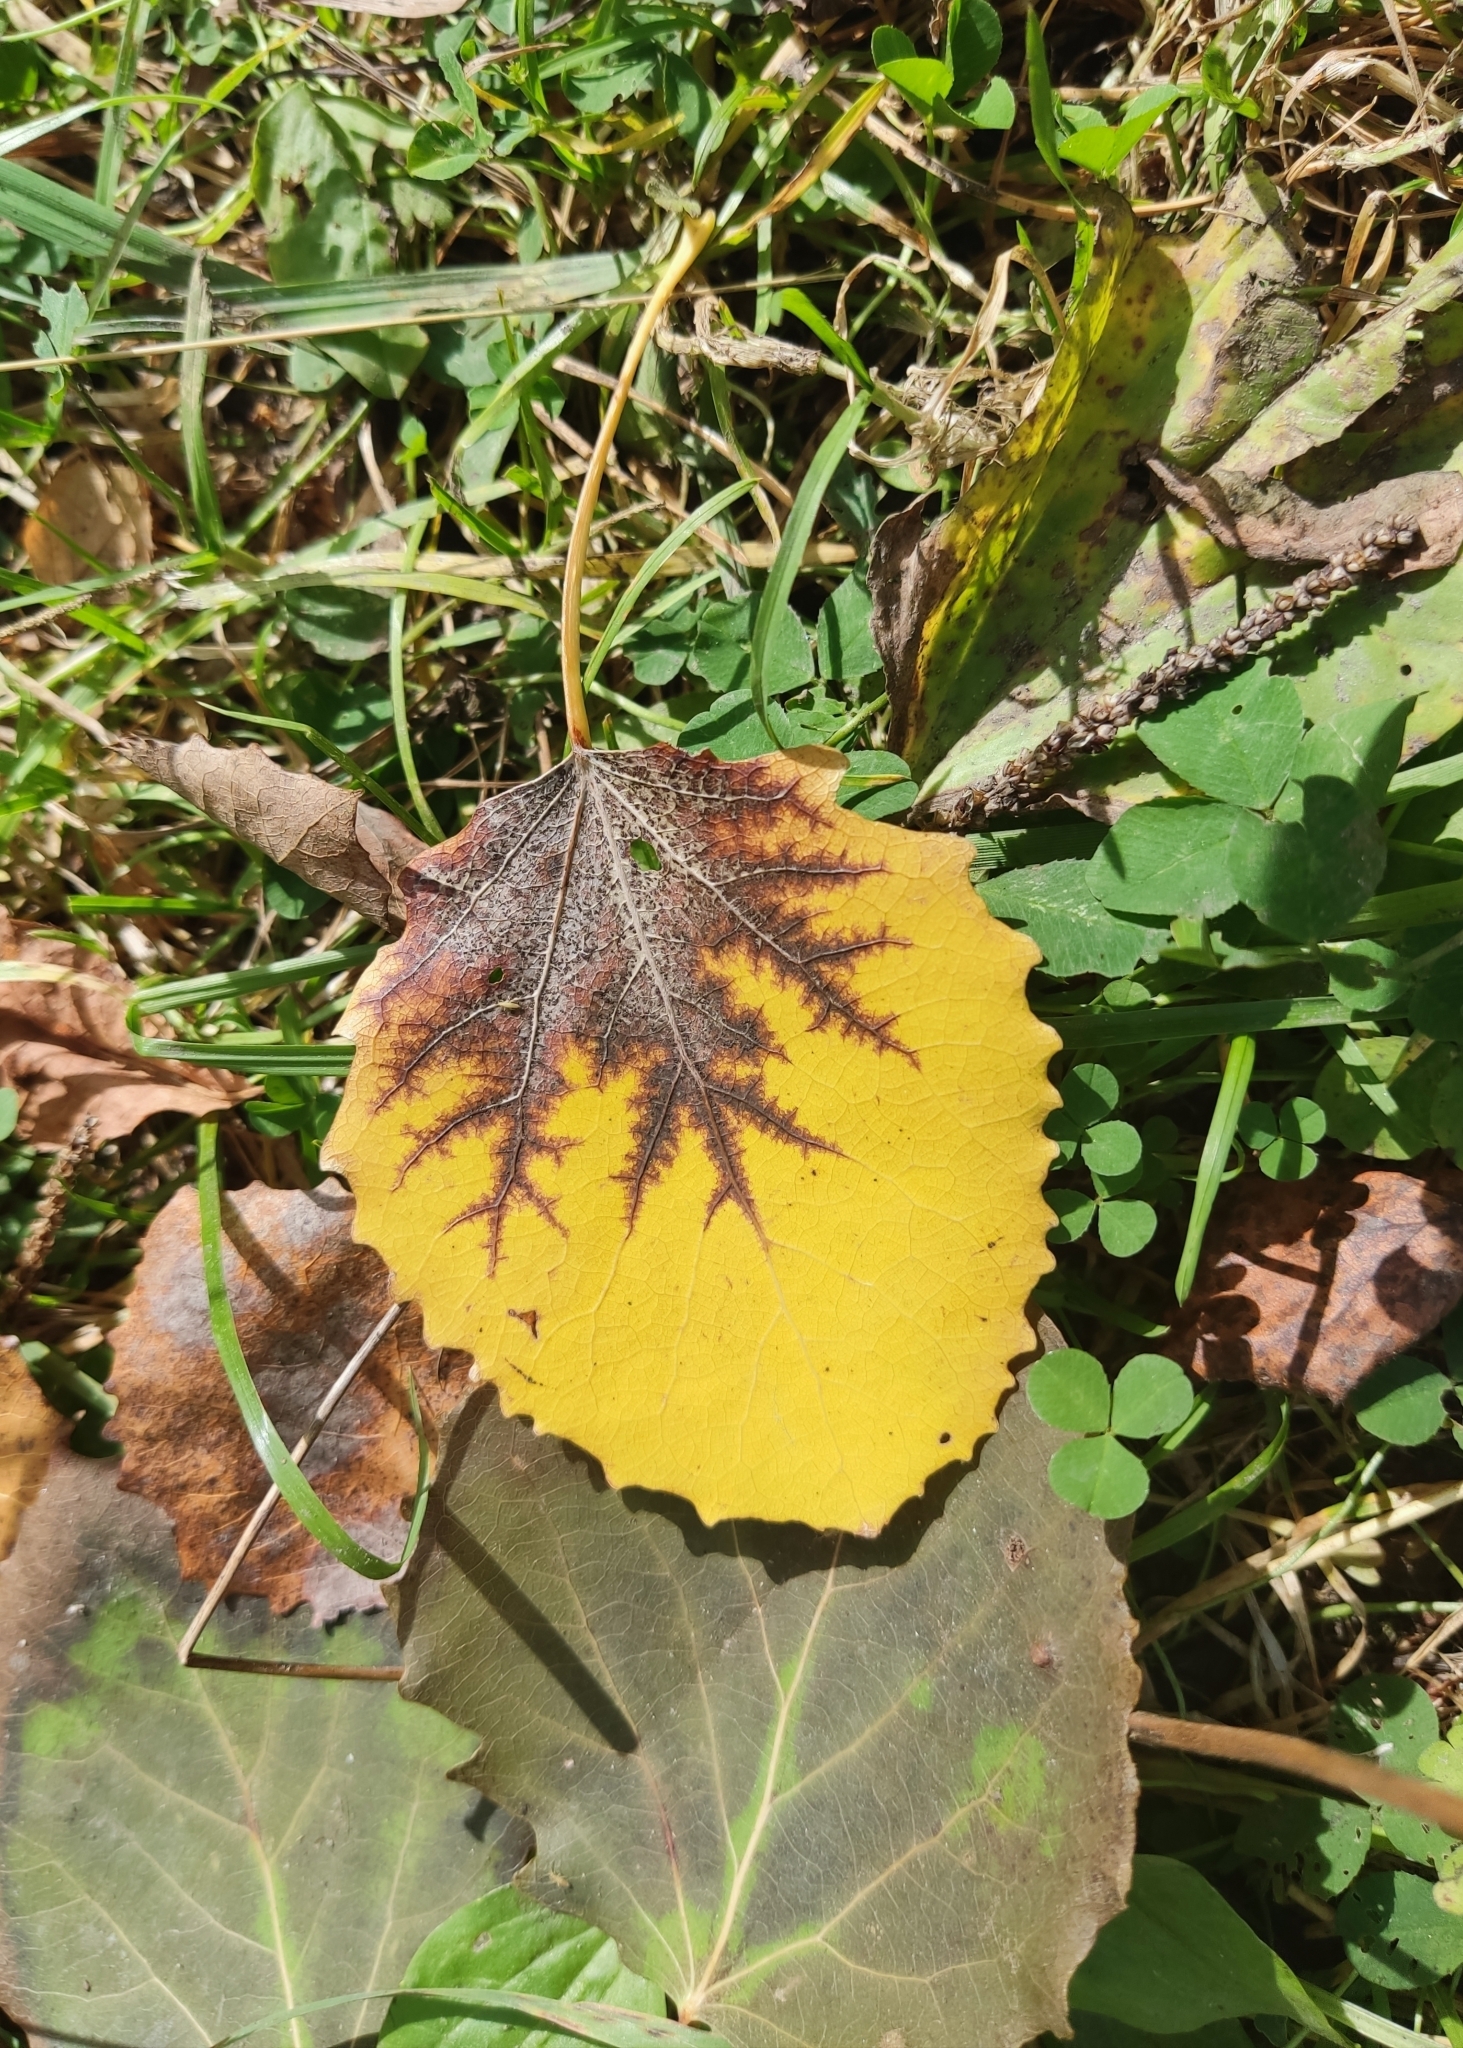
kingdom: Plantae
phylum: Tracheophyta
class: Magnoliopsida
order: Malpighiales
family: Salicaceae
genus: Populus
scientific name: Populus tremula
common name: European aspen
